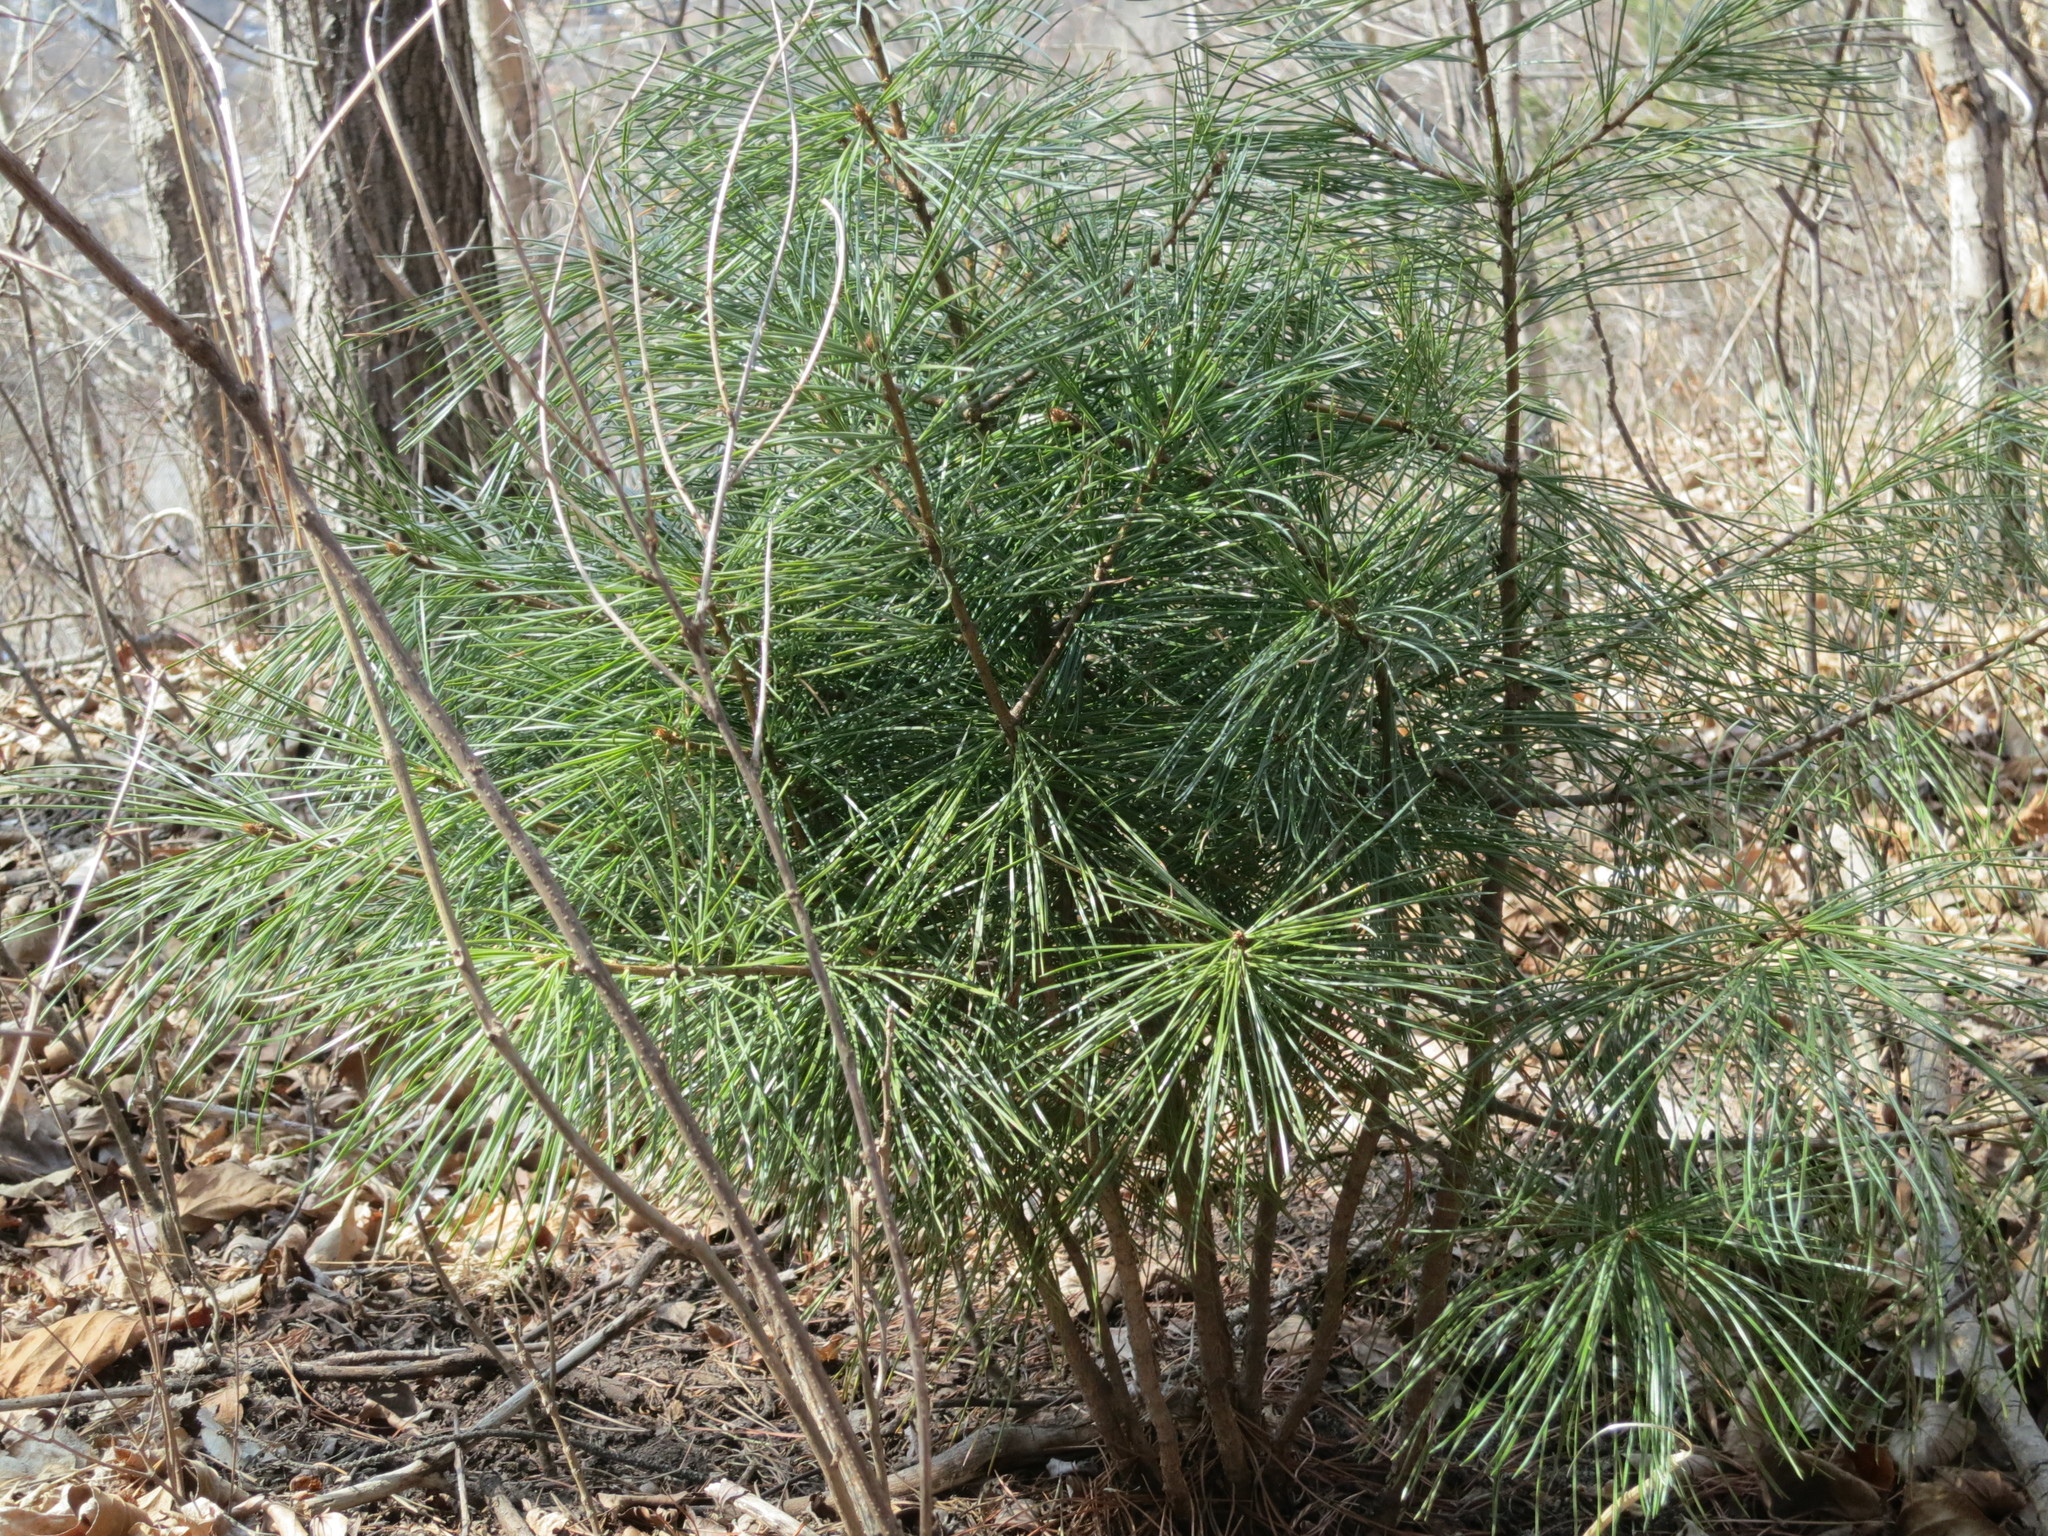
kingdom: Plantae
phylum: Tracheophyta
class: Pinopsida
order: Pinales
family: Pinaceae
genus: Pinus
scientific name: Pinus koraiensis
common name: Korean pine
